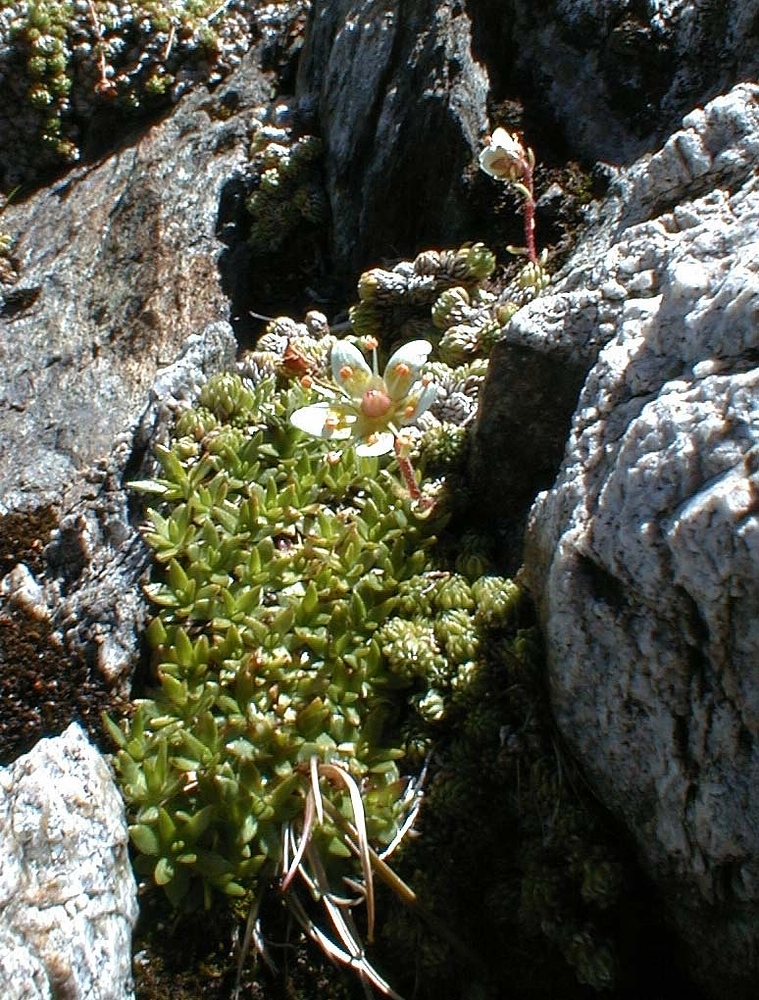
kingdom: Plantae
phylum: Tracheophyta
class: Magnoliopsida
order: Saxifragales
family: Saxifragaceae
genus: Saxifraga
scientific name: Saxifraga bryoides
